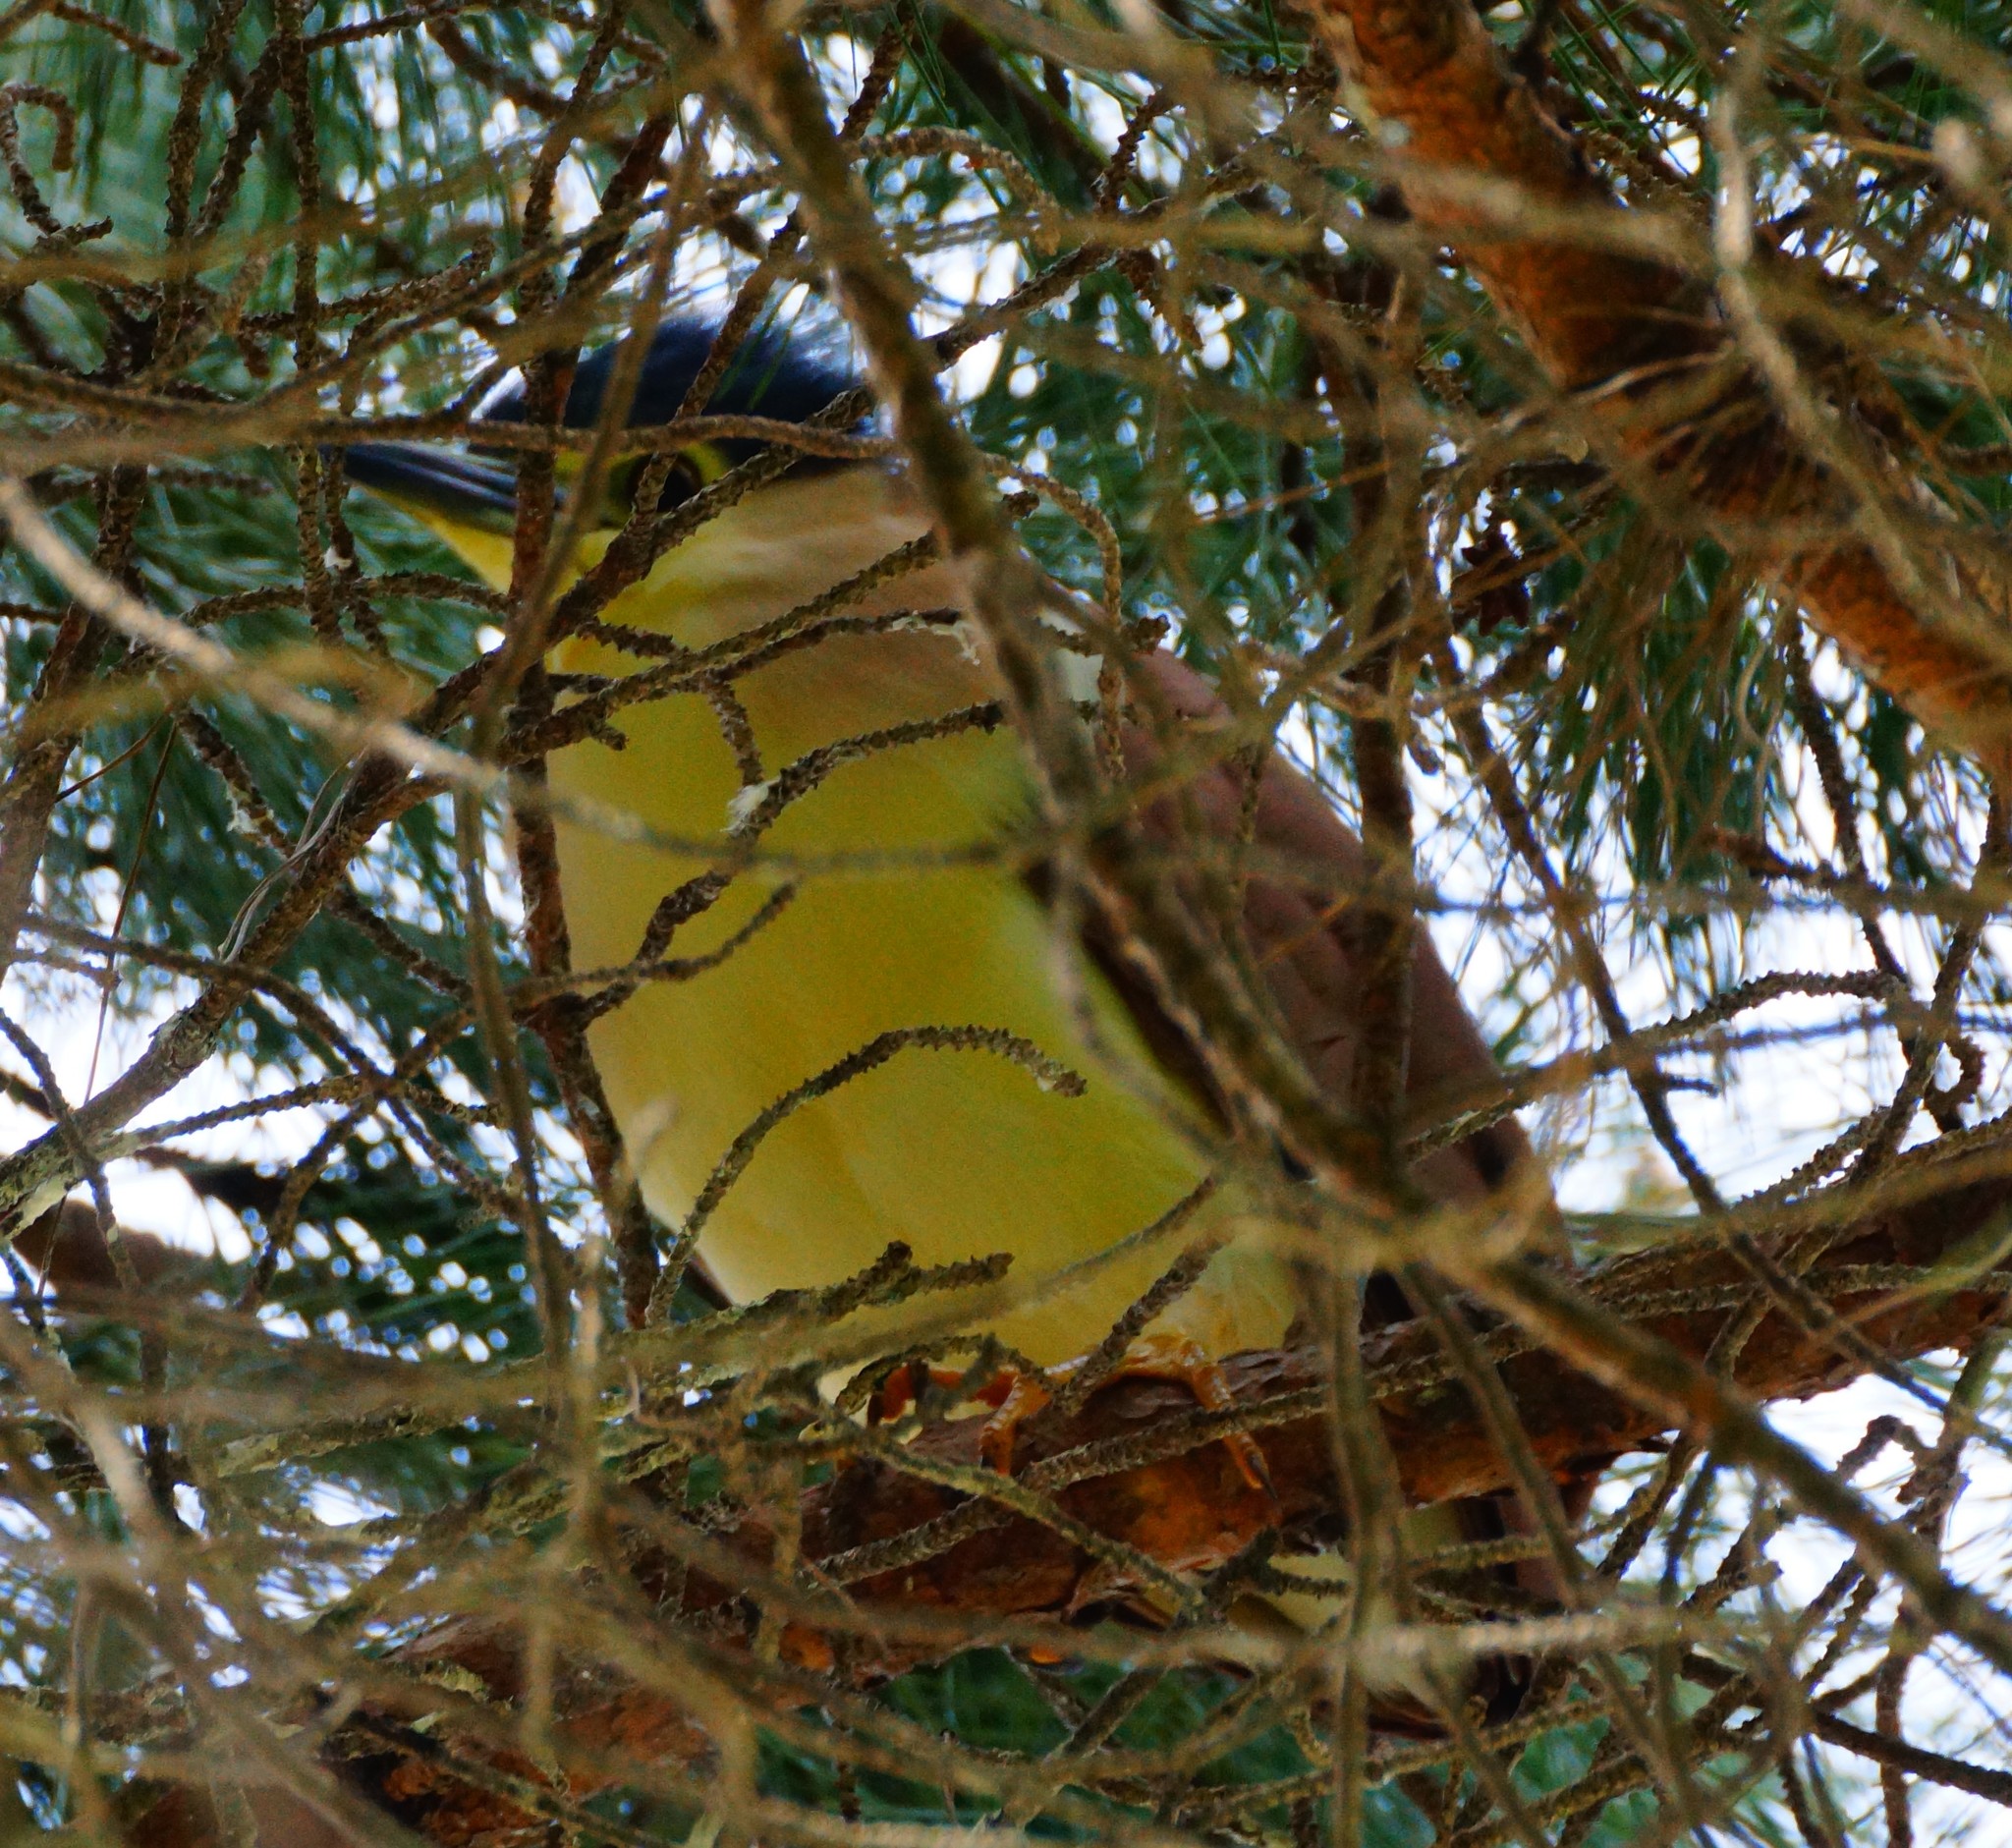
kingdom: Animalia
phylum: Chordata
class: Aves
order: Pelecaniformes
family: Ardeidae
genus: Nycticorax
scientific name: Nycticorax caledonicus
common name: Rufous night-heron
